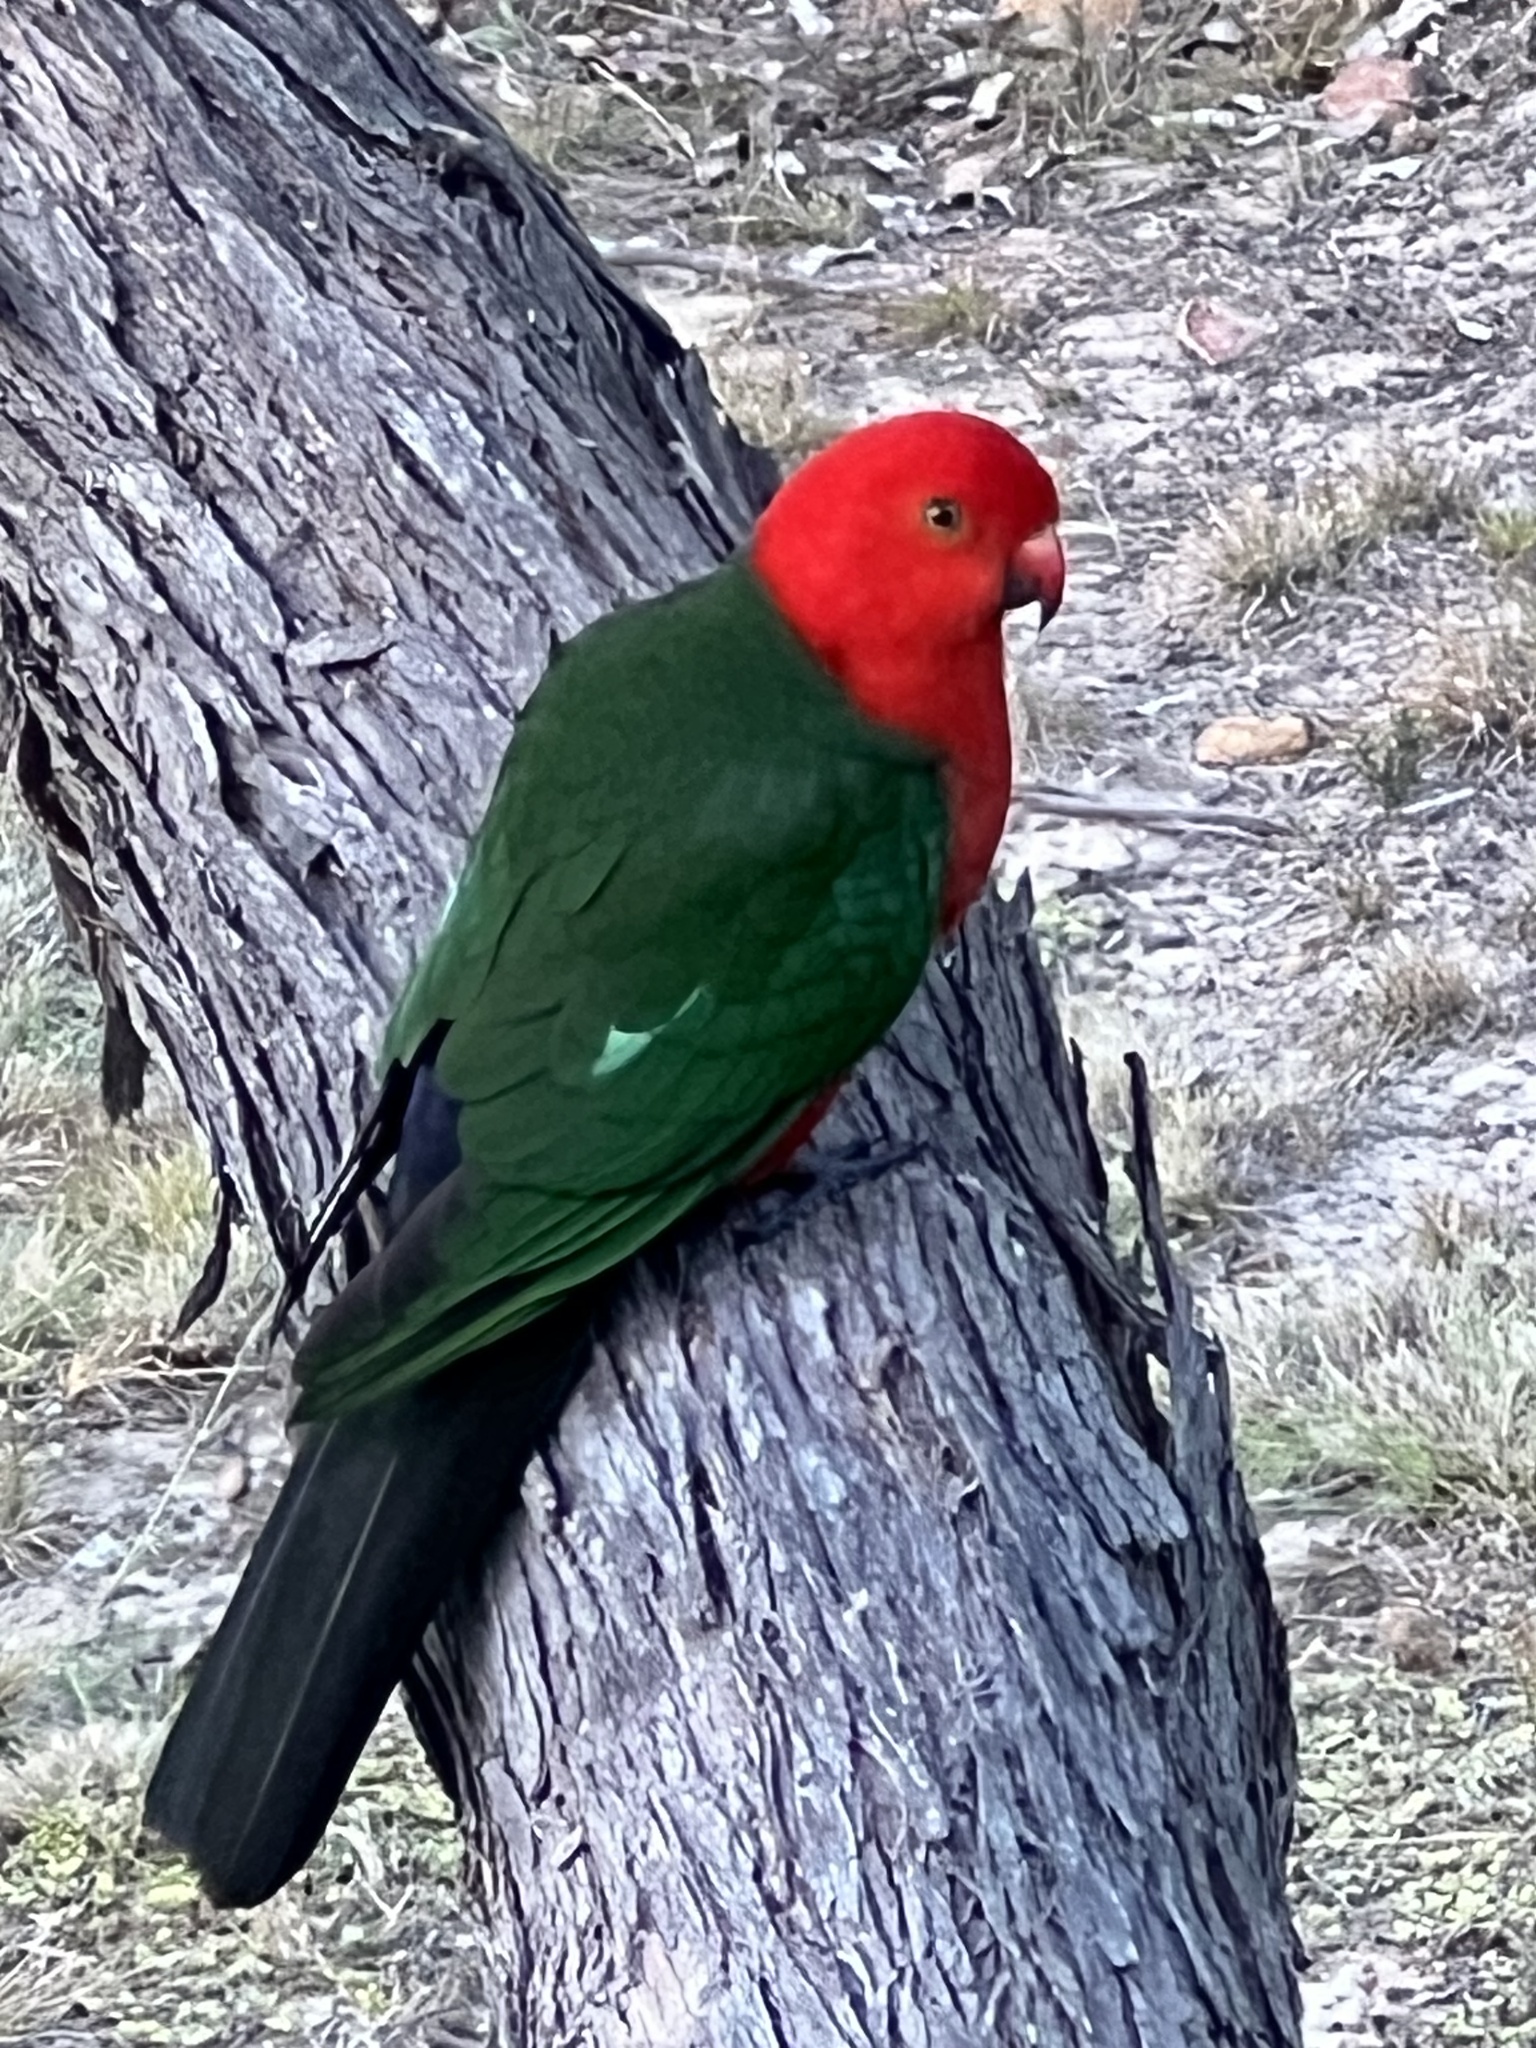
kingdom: Animalia
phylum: Chordata
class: Aves
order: Psittaciformes
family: Psittacidae
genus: Alisterus
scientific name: Alisterus scapularis
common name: Australian king parrot
